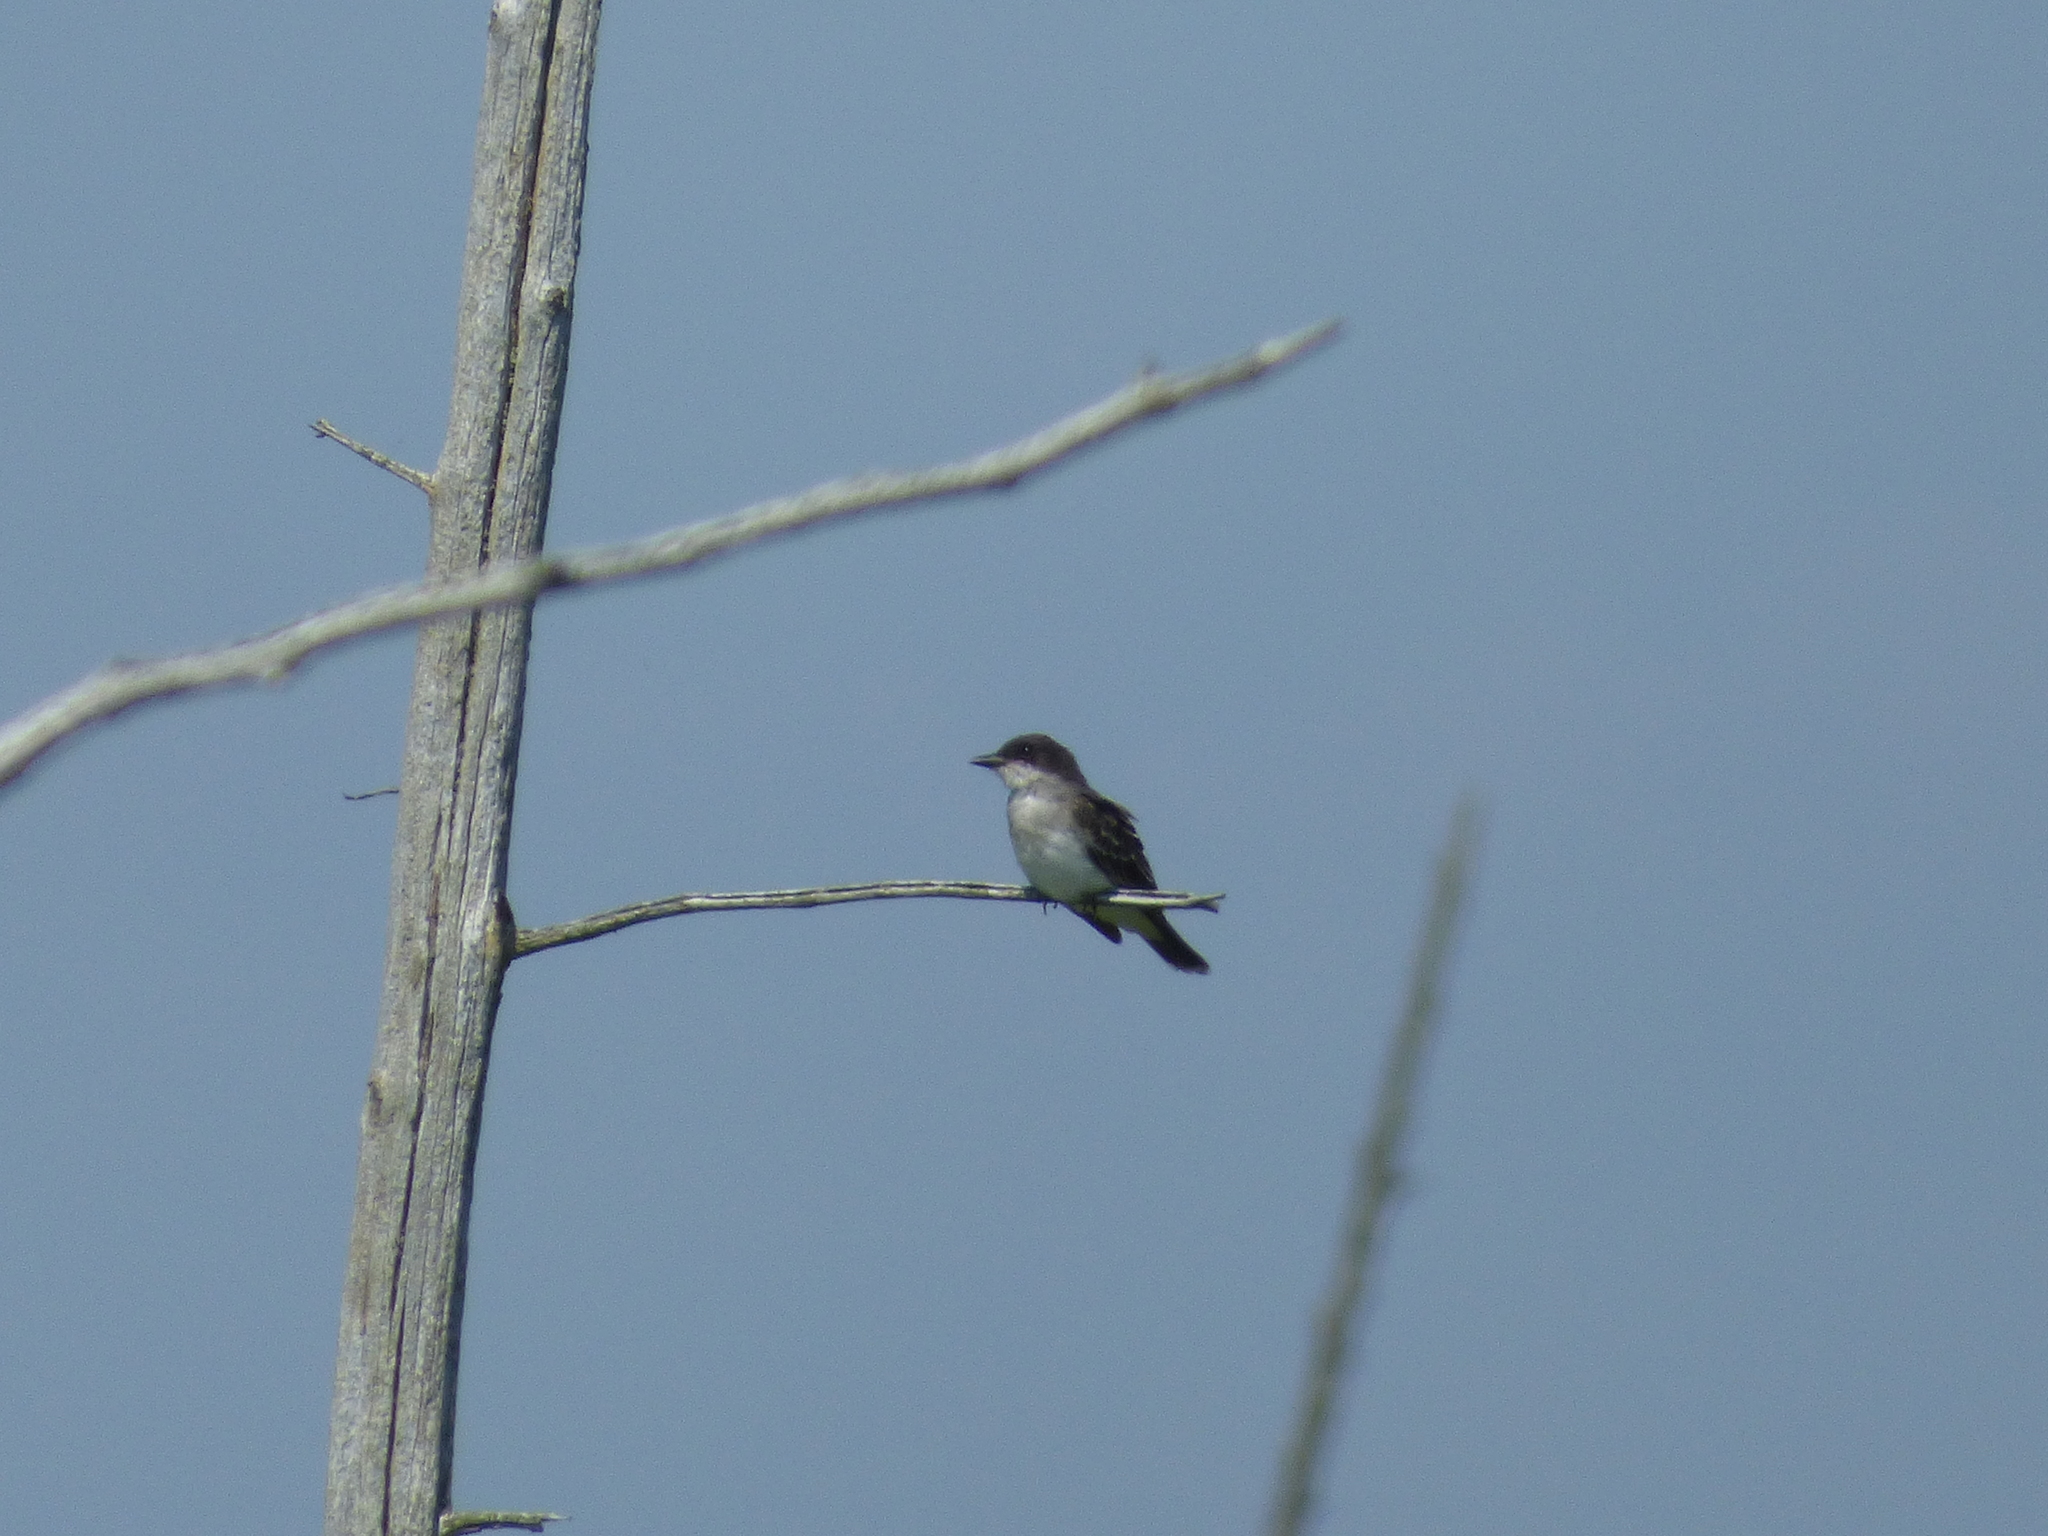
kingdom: Animalia
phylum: Chordata
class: Aves
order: Passeriformes
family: Tyrannidae
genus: Tyrannus
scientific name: Tyrannus tyrannus
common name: Eastern kingbird
